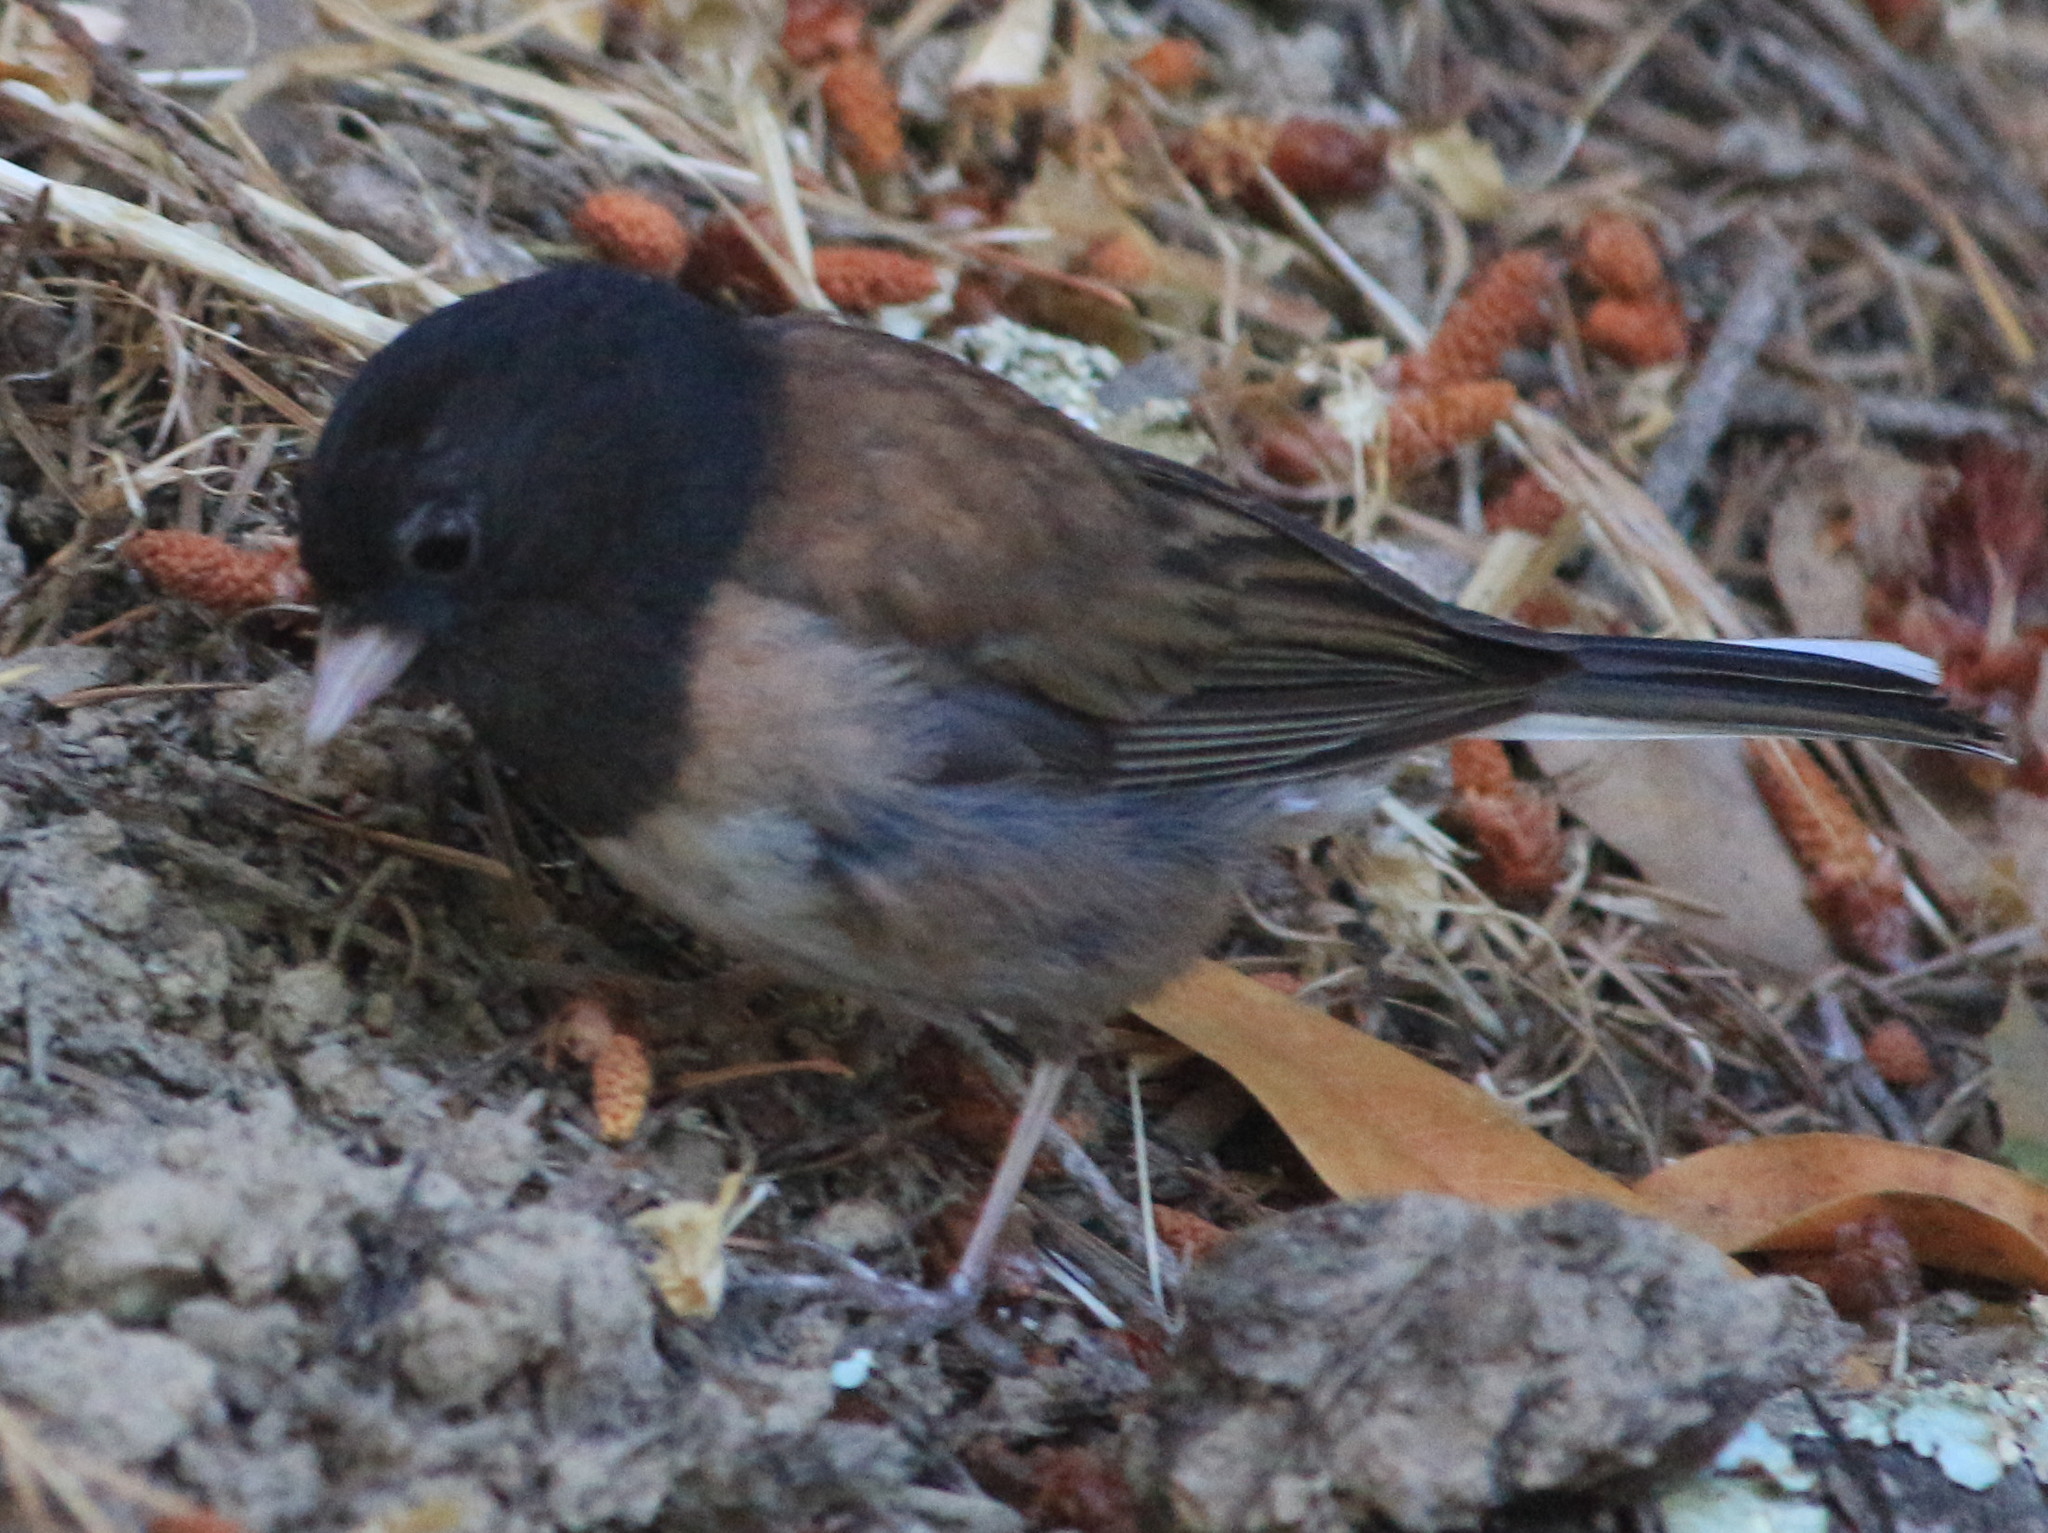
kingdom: Animalia
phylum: Chordata
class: Aves
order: Passeriformes
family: Passerellidae
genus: Junco
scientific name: Junco hyemalis
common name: Dark-eyed junco
